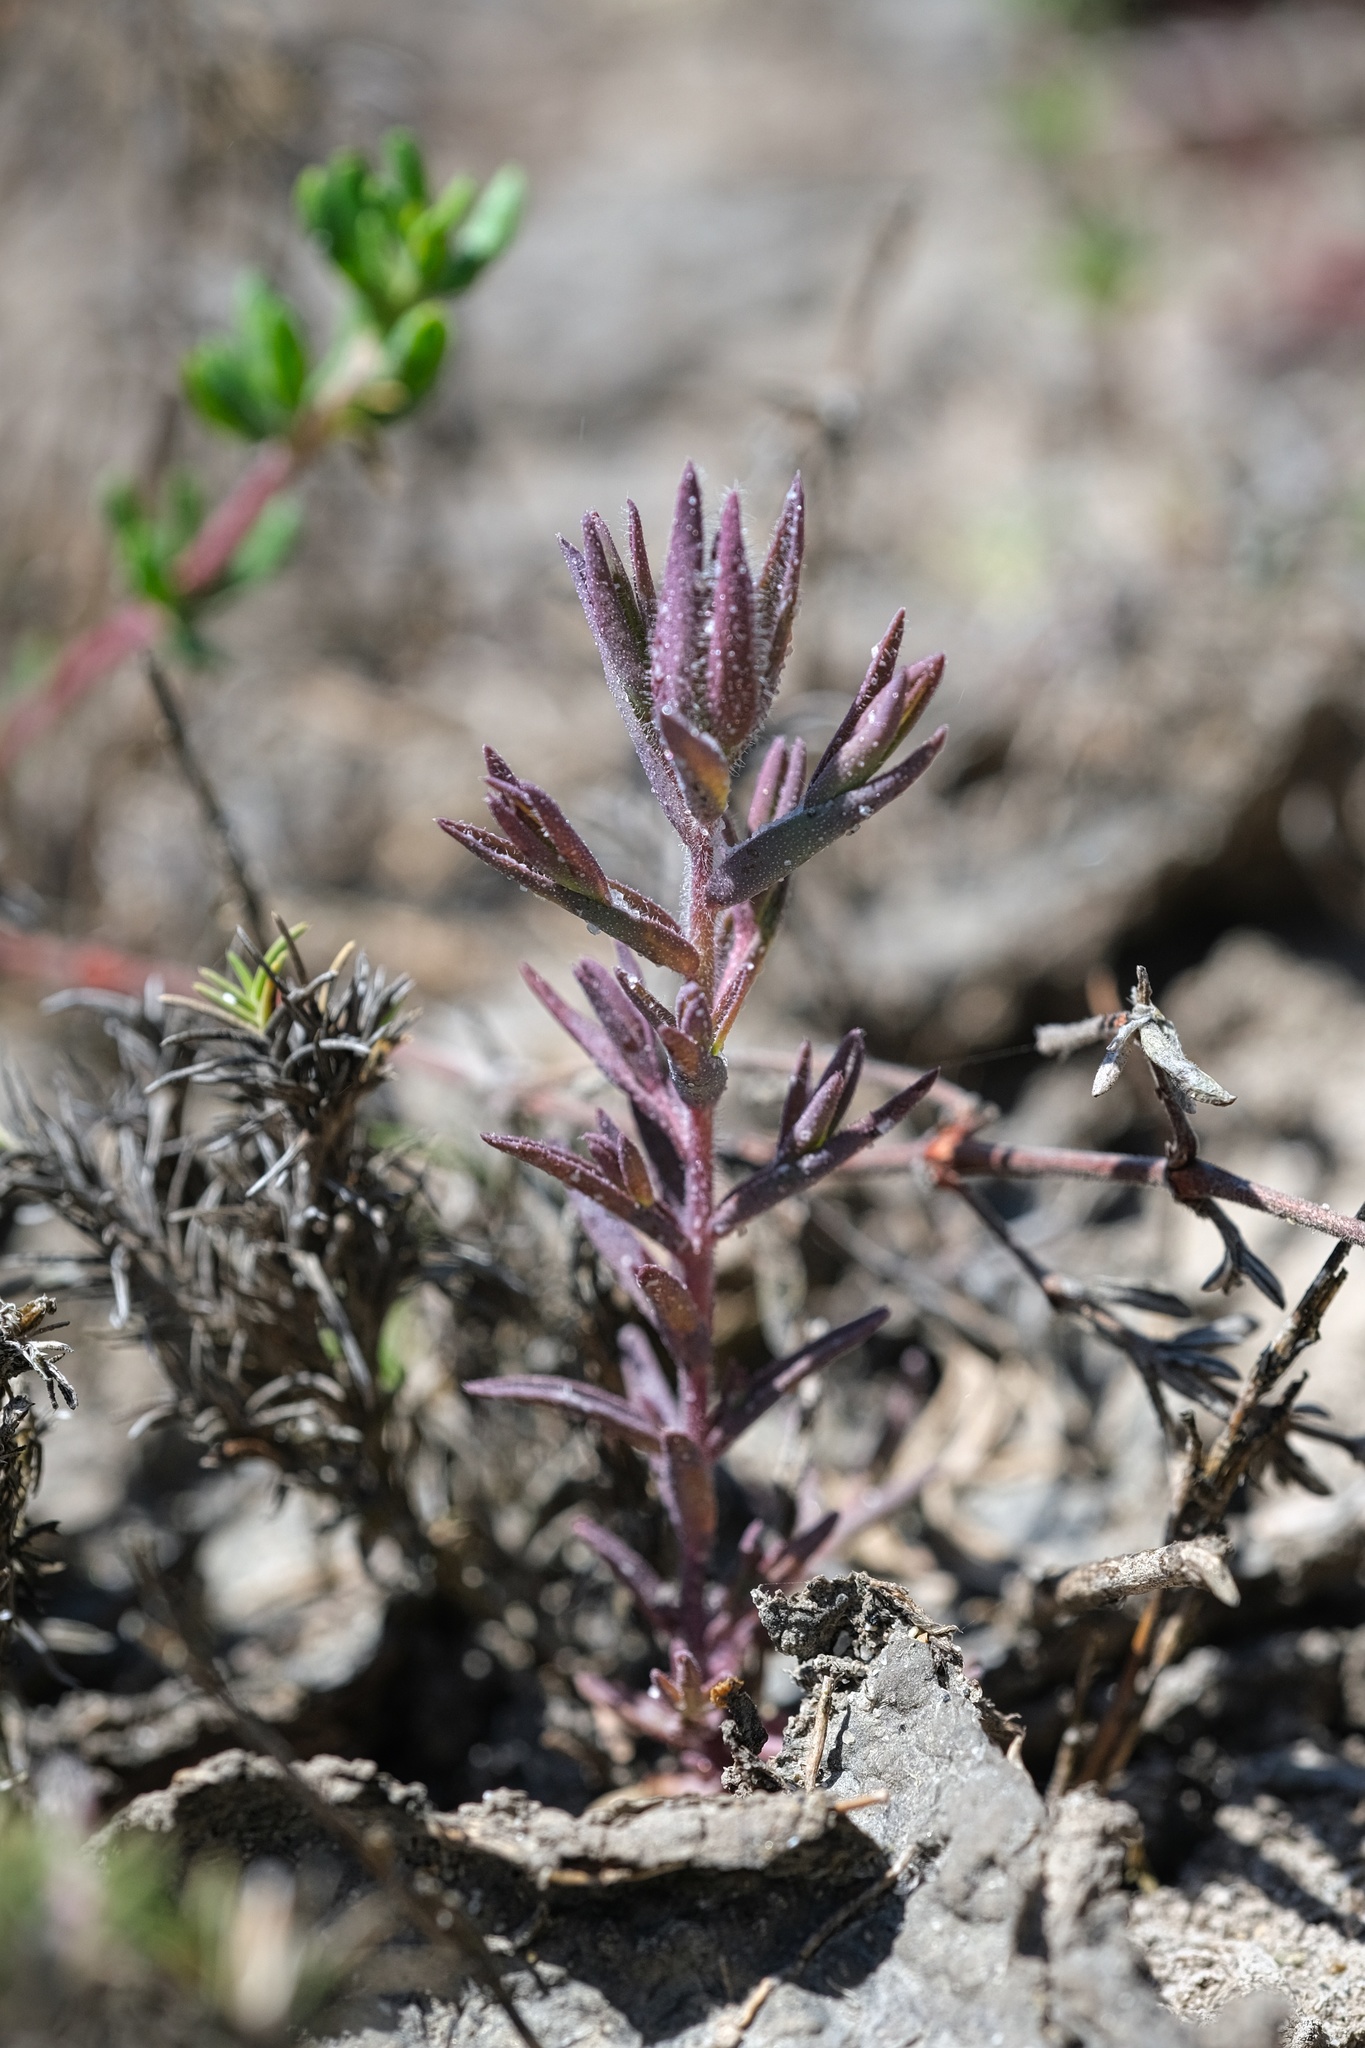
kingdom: Plantae
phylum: Tracheophyta
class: Magnoliopsida
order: Lamiales
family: Orobanchaceae
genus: Chloropyron
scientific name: Chloropyron maritimum
